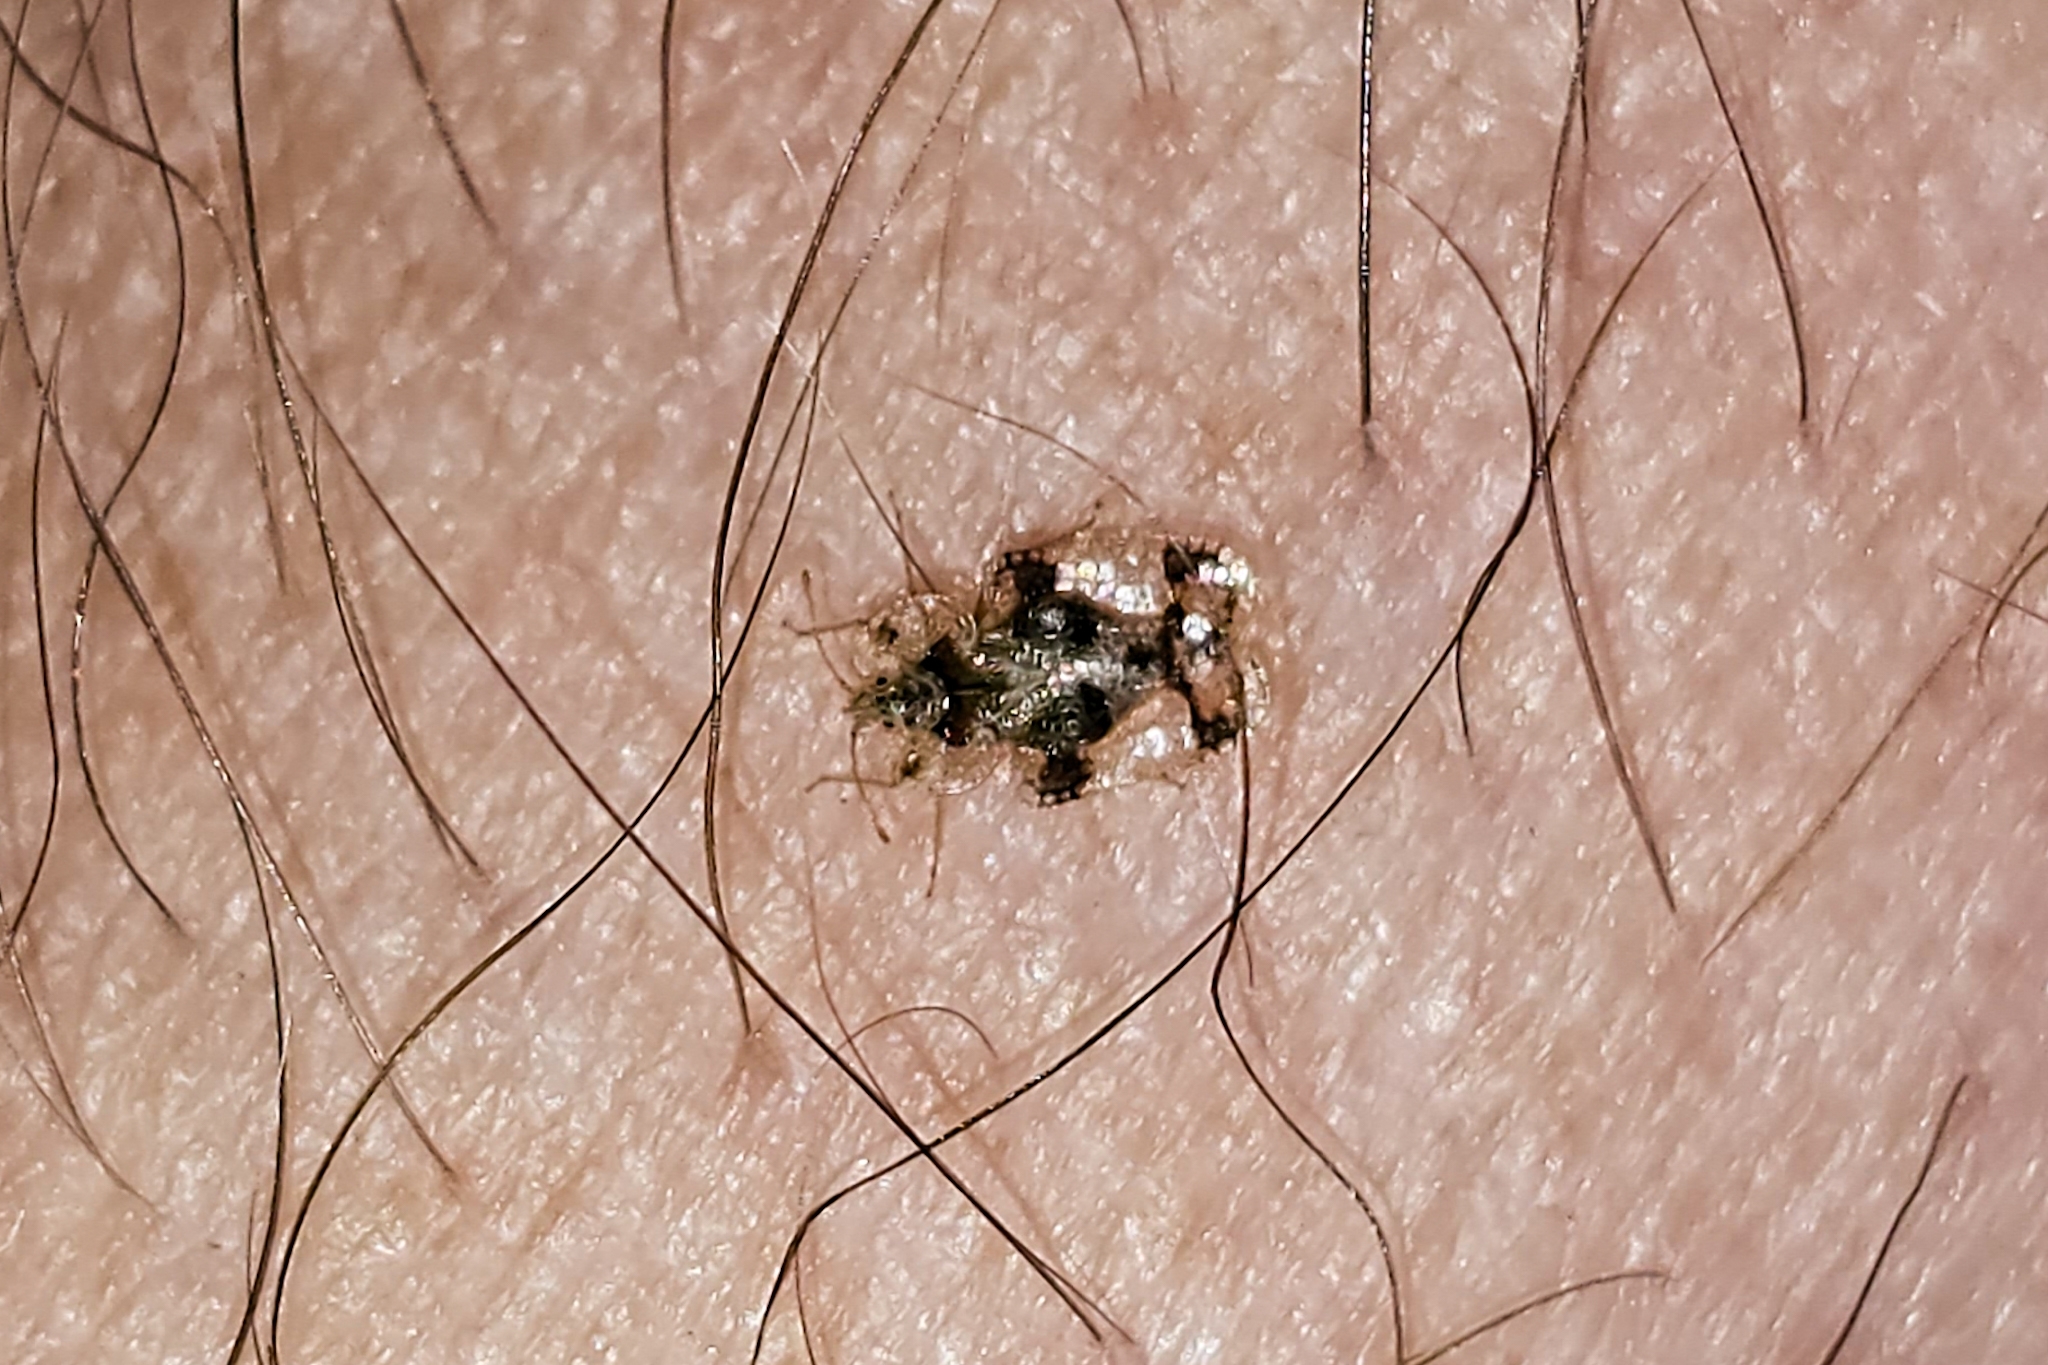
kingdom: Animalia
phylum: Arthropoda
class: Insecta
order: Hemiptera
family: Tingidae
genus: Corythucha
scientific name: Corythucha arcuata
